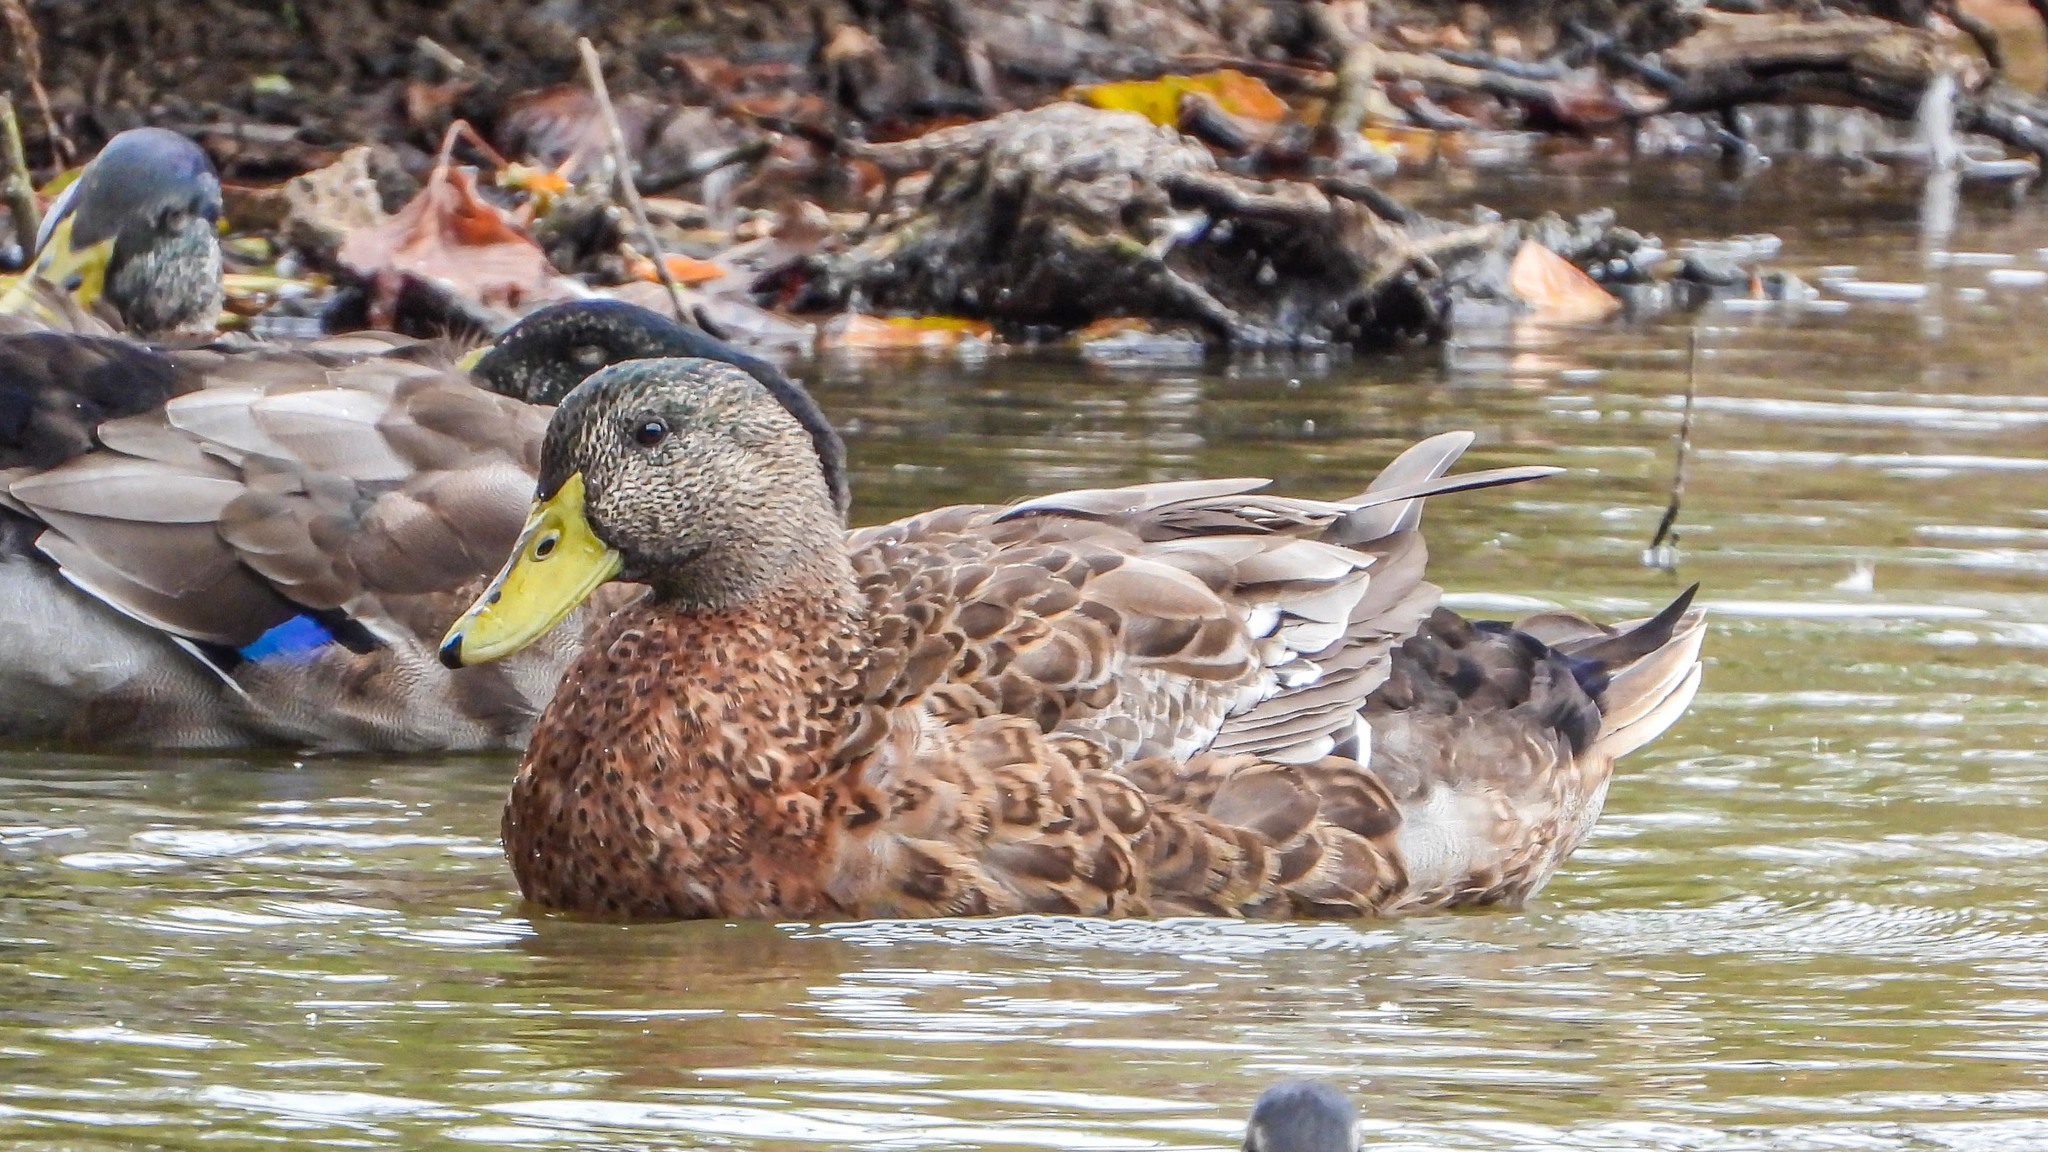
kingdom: Animalia
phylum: Chordata
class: Aves
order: Anseriformes
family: Anatidae
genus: Anas
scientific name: Anas platyrhynchos
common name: Mallard
